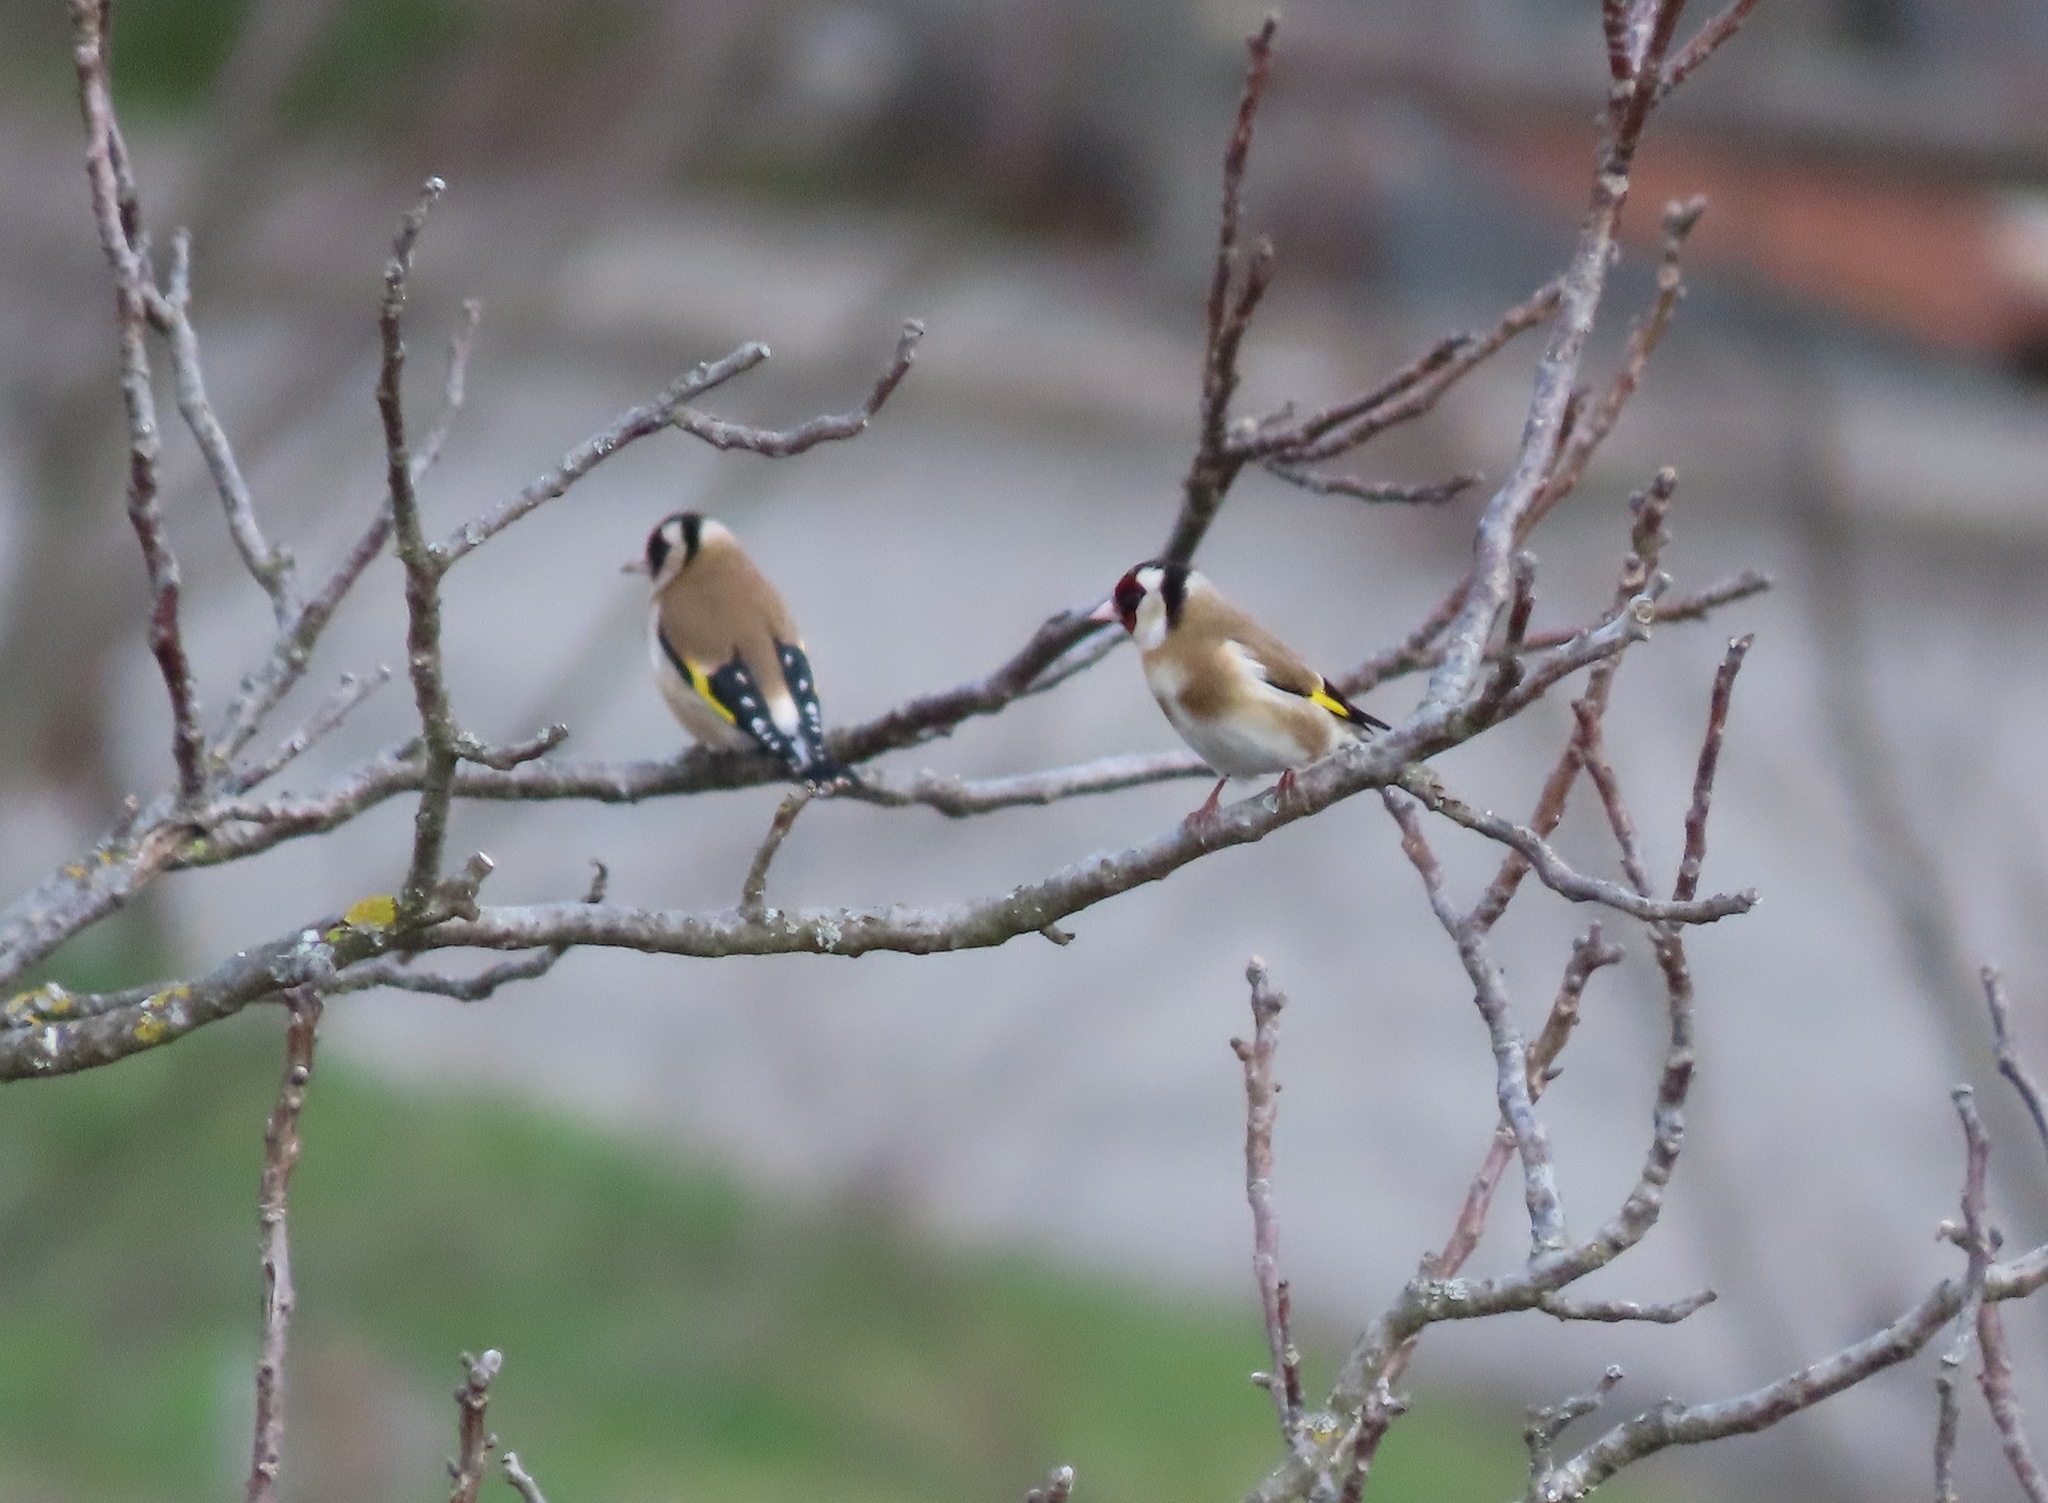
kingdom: Animalia
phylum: Chordata
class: Aves
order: Passeriformes
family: Fringillidae
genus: Carduelis
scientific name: Carduelis carduelis
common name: European goldfinch
